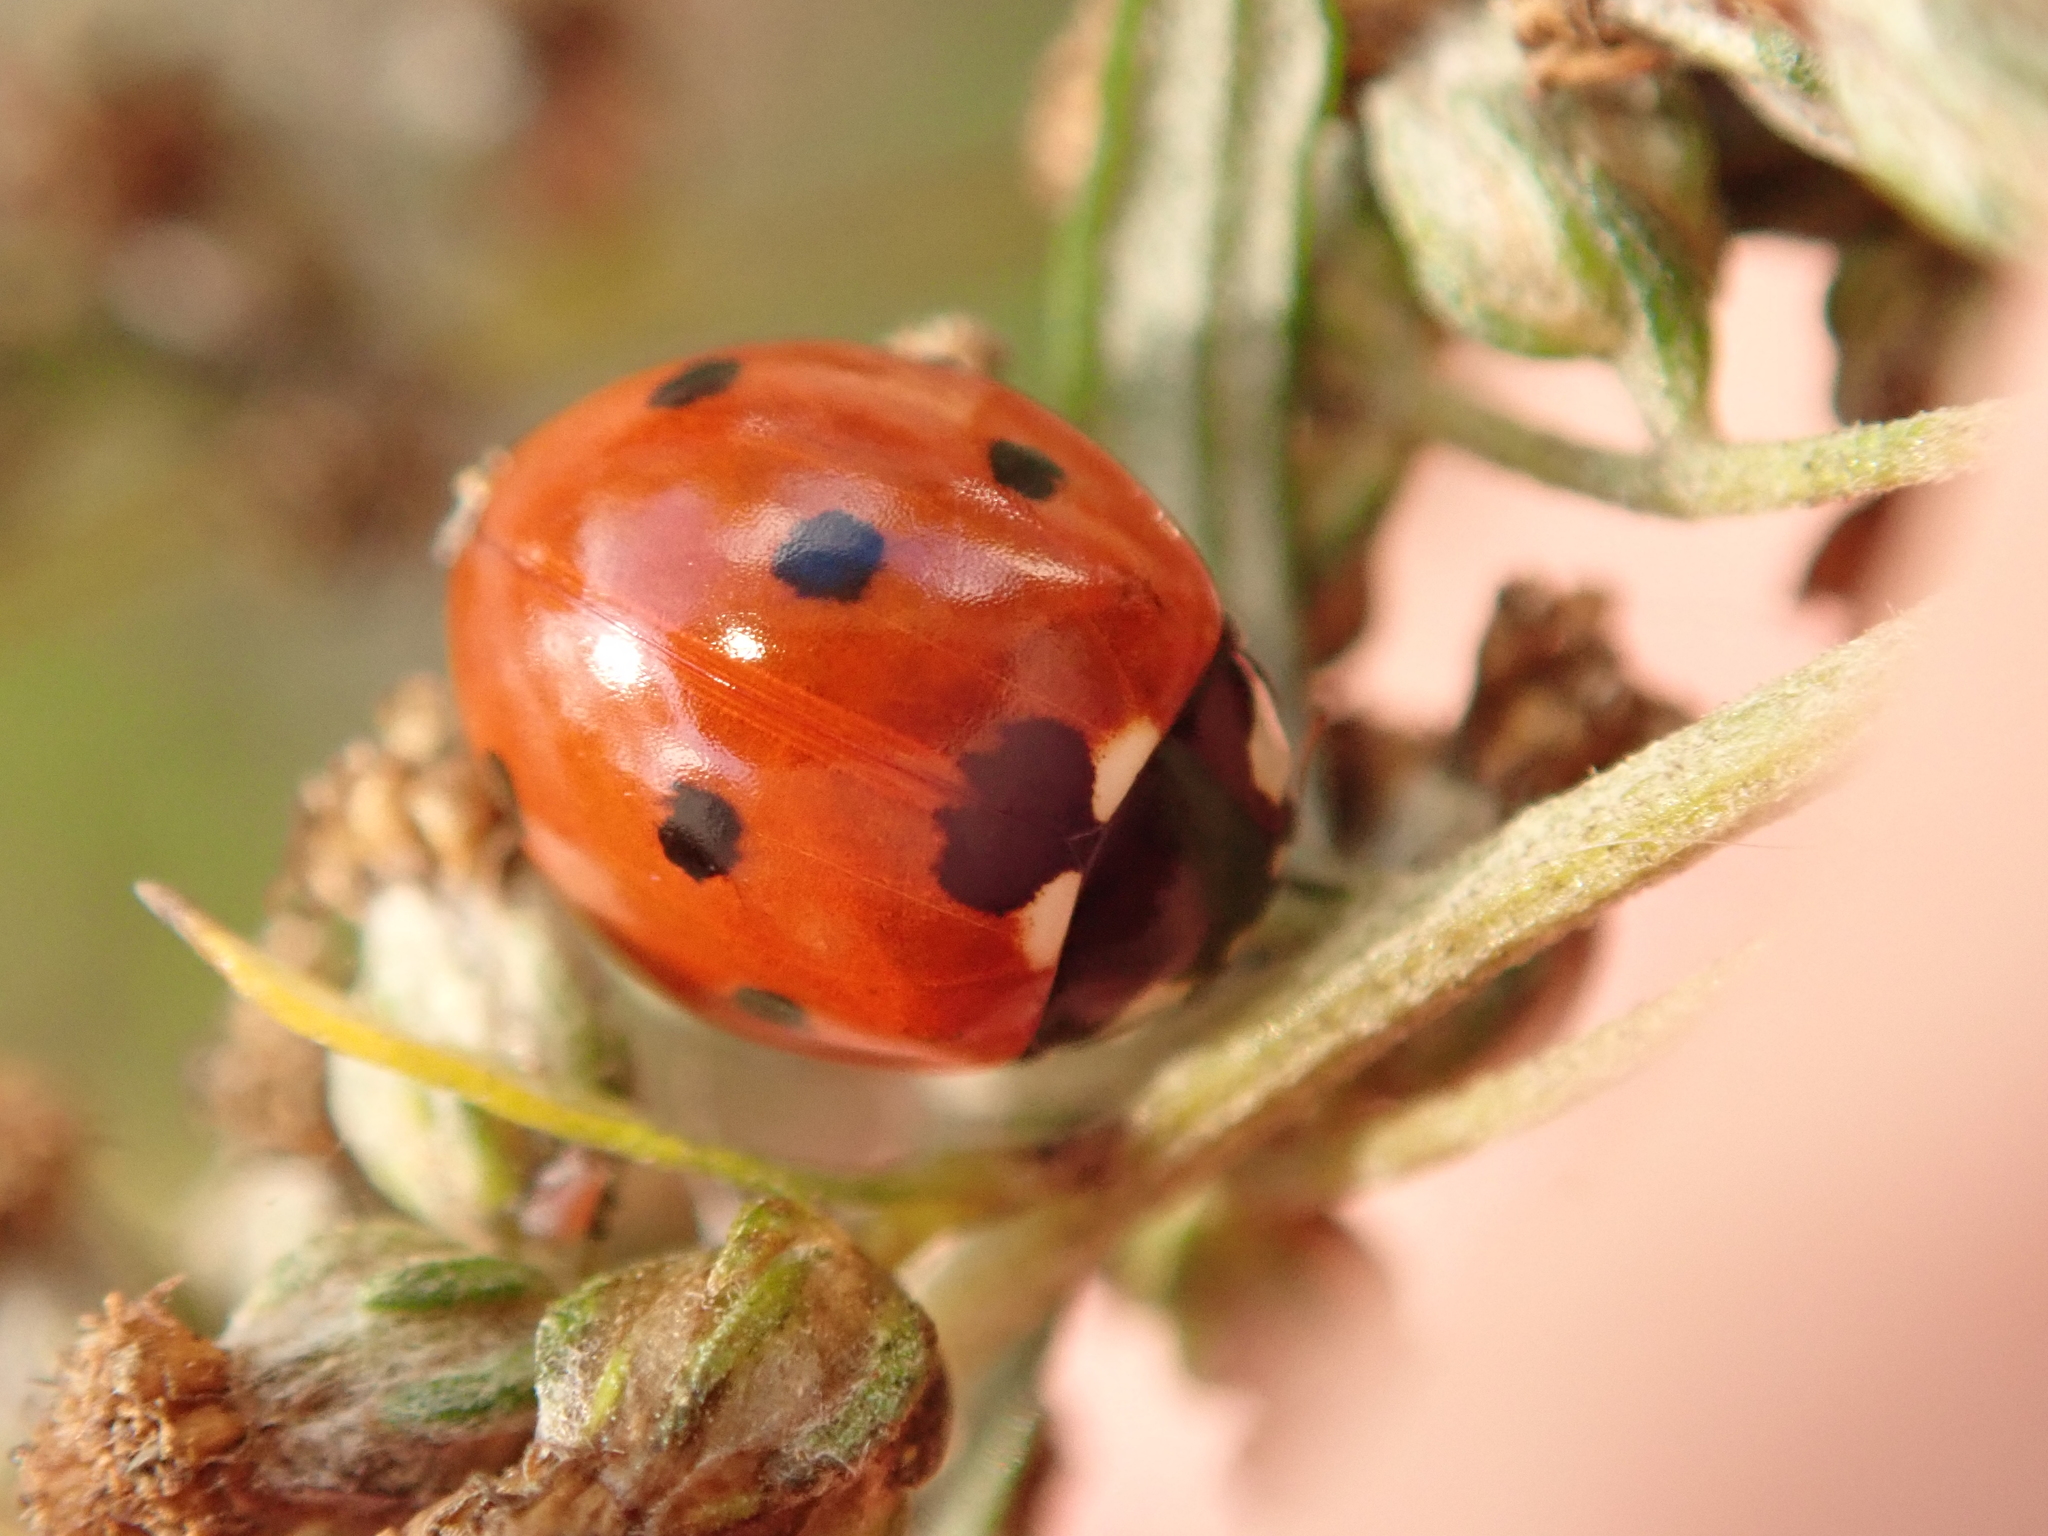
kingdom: Animalia
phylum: Arthropoda
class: Insecta
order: Coleoptera
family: Coccinellidae
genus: Coccinella
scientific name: Coccinella septempunctata
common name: Sevenspotted lady beetle
